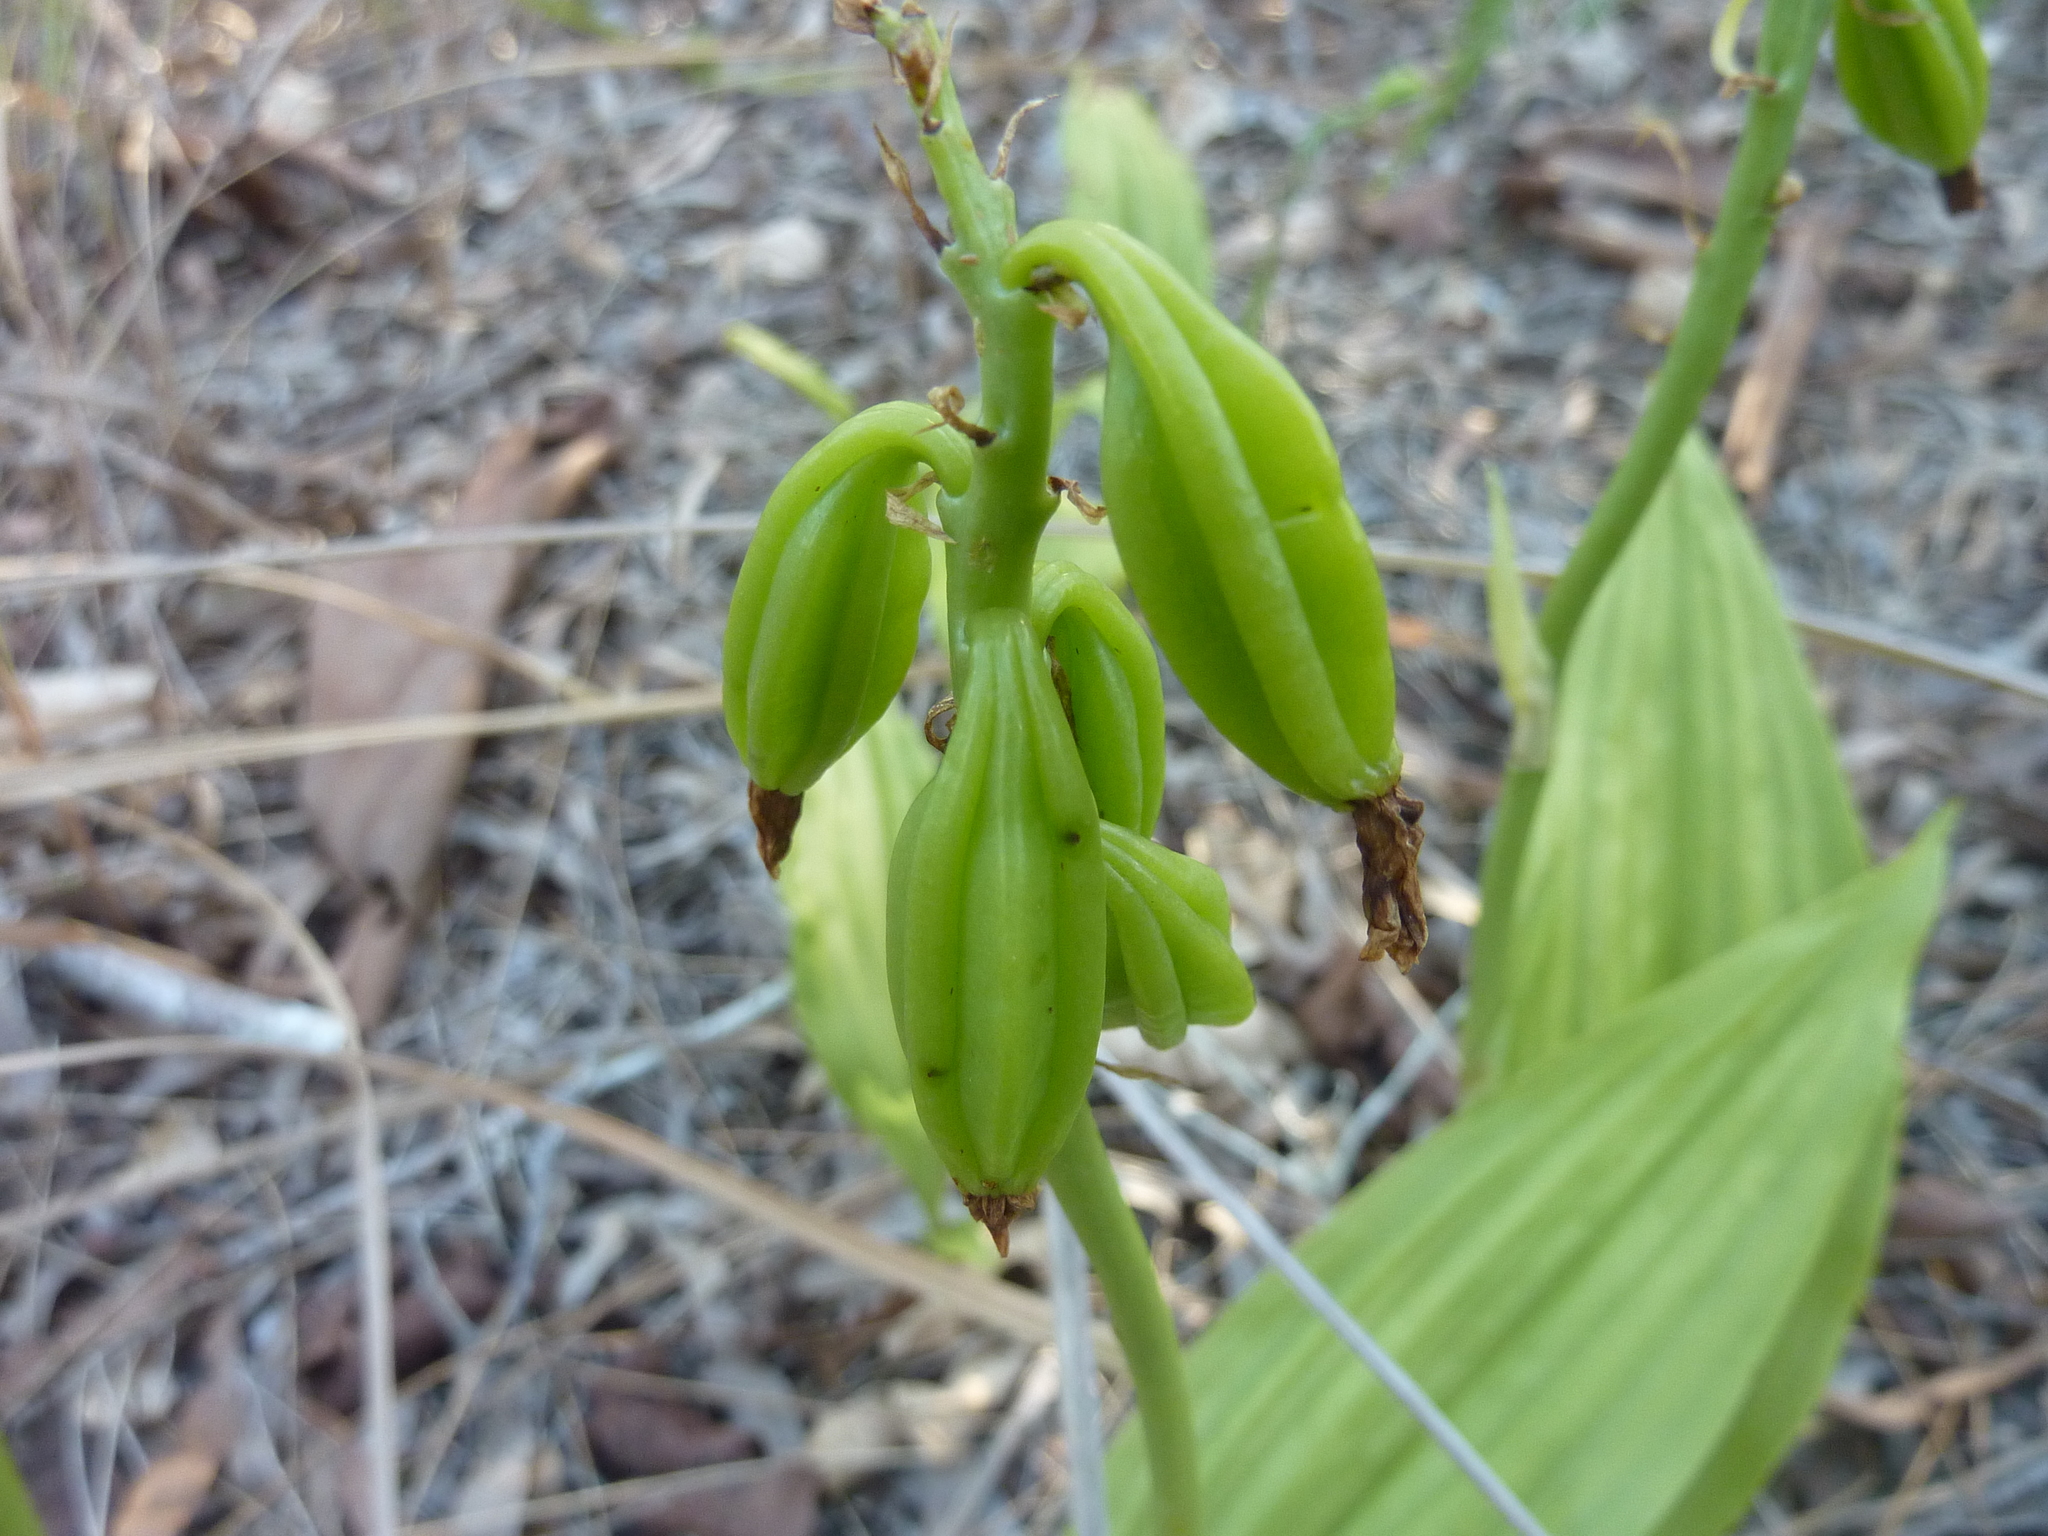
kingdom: Plantae
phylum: Tracheophyta
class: Liliopsida
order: Asparagales
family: Orchidaceae
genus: Eulophia
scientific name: Eulophia cernua
